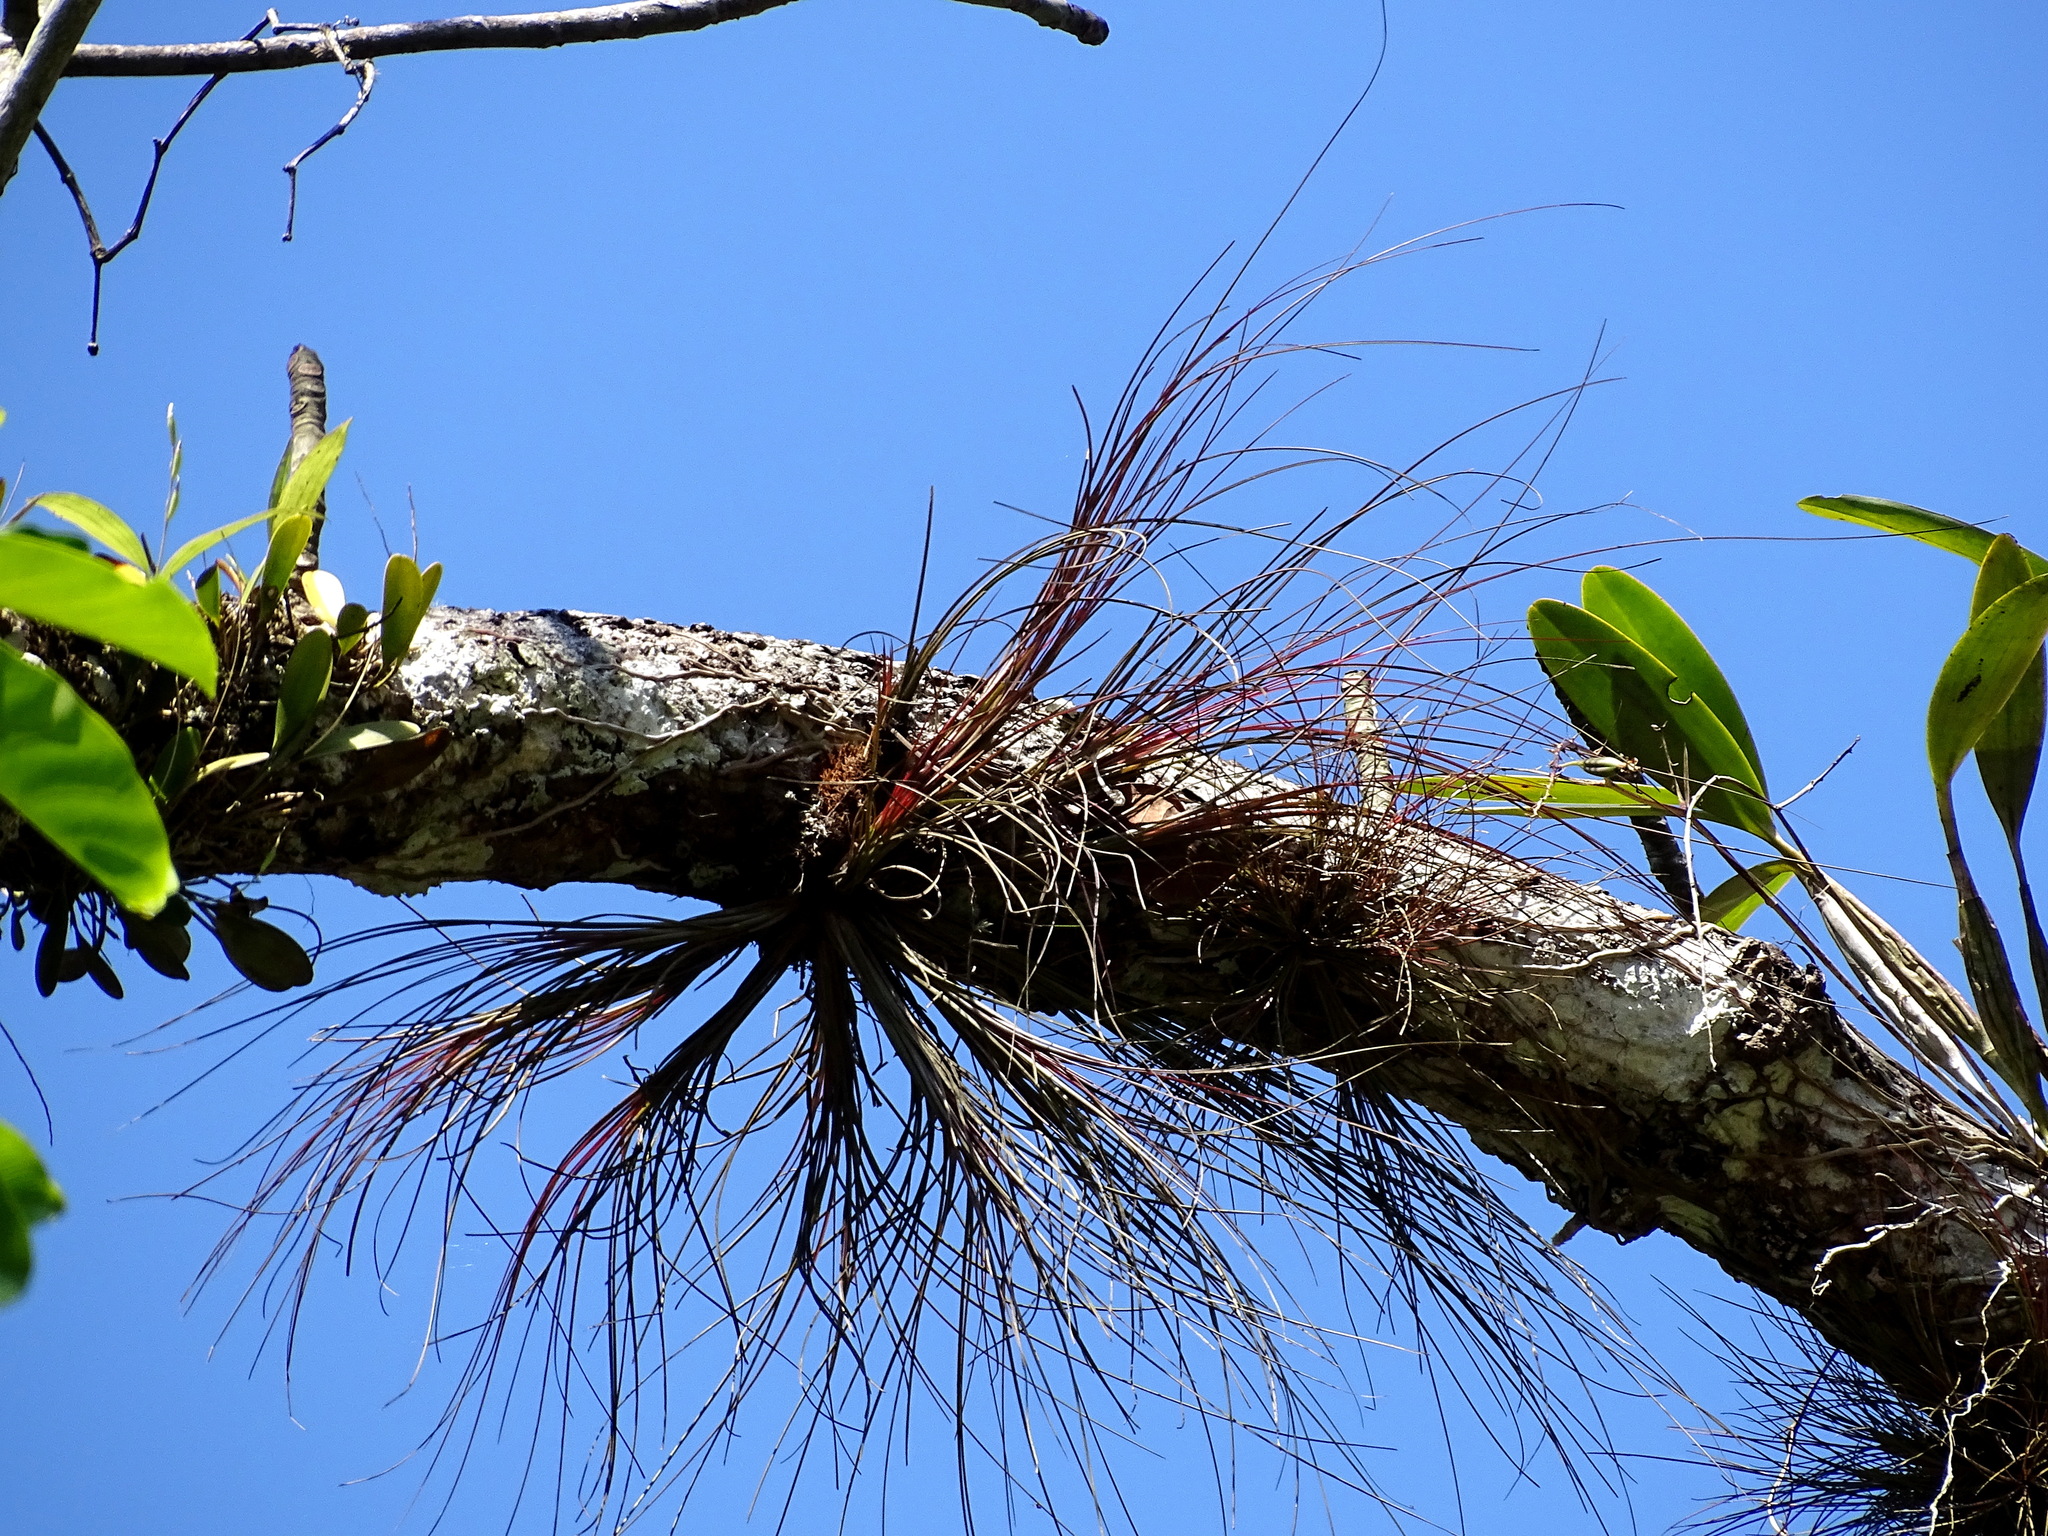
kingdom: Plantae
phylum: Tracheophyta
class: Liliopsida
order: Poales
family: Bromeliaceae
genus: Tillandsia
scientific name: Tillandsia eistetteri
